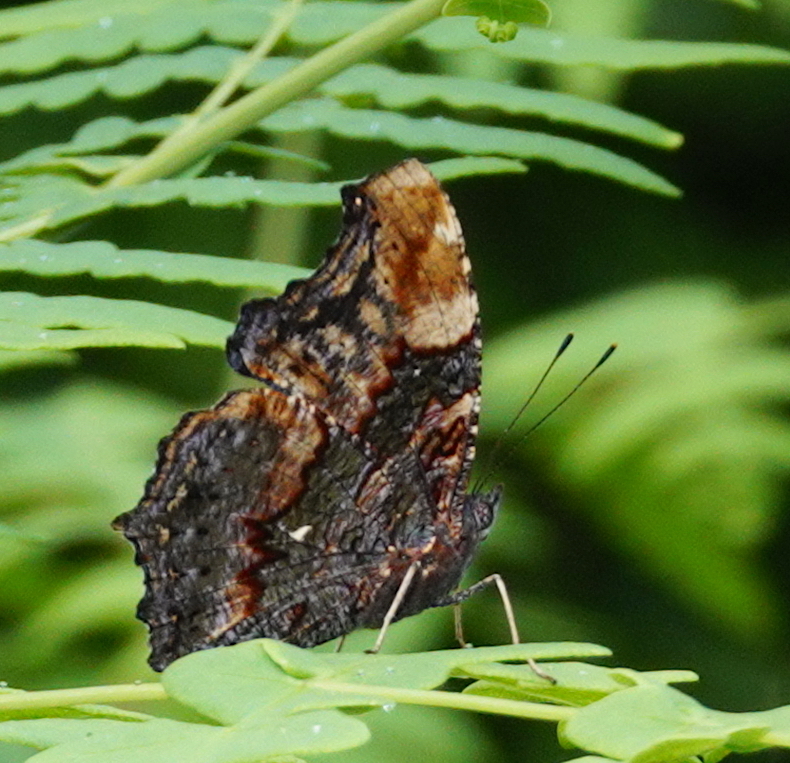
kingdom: Animalia
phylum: Arthropoda
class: Insecta
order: Lepidoptera
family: Nymphalidae
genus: Vanessa
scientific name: Vanessa Kaniska canace
